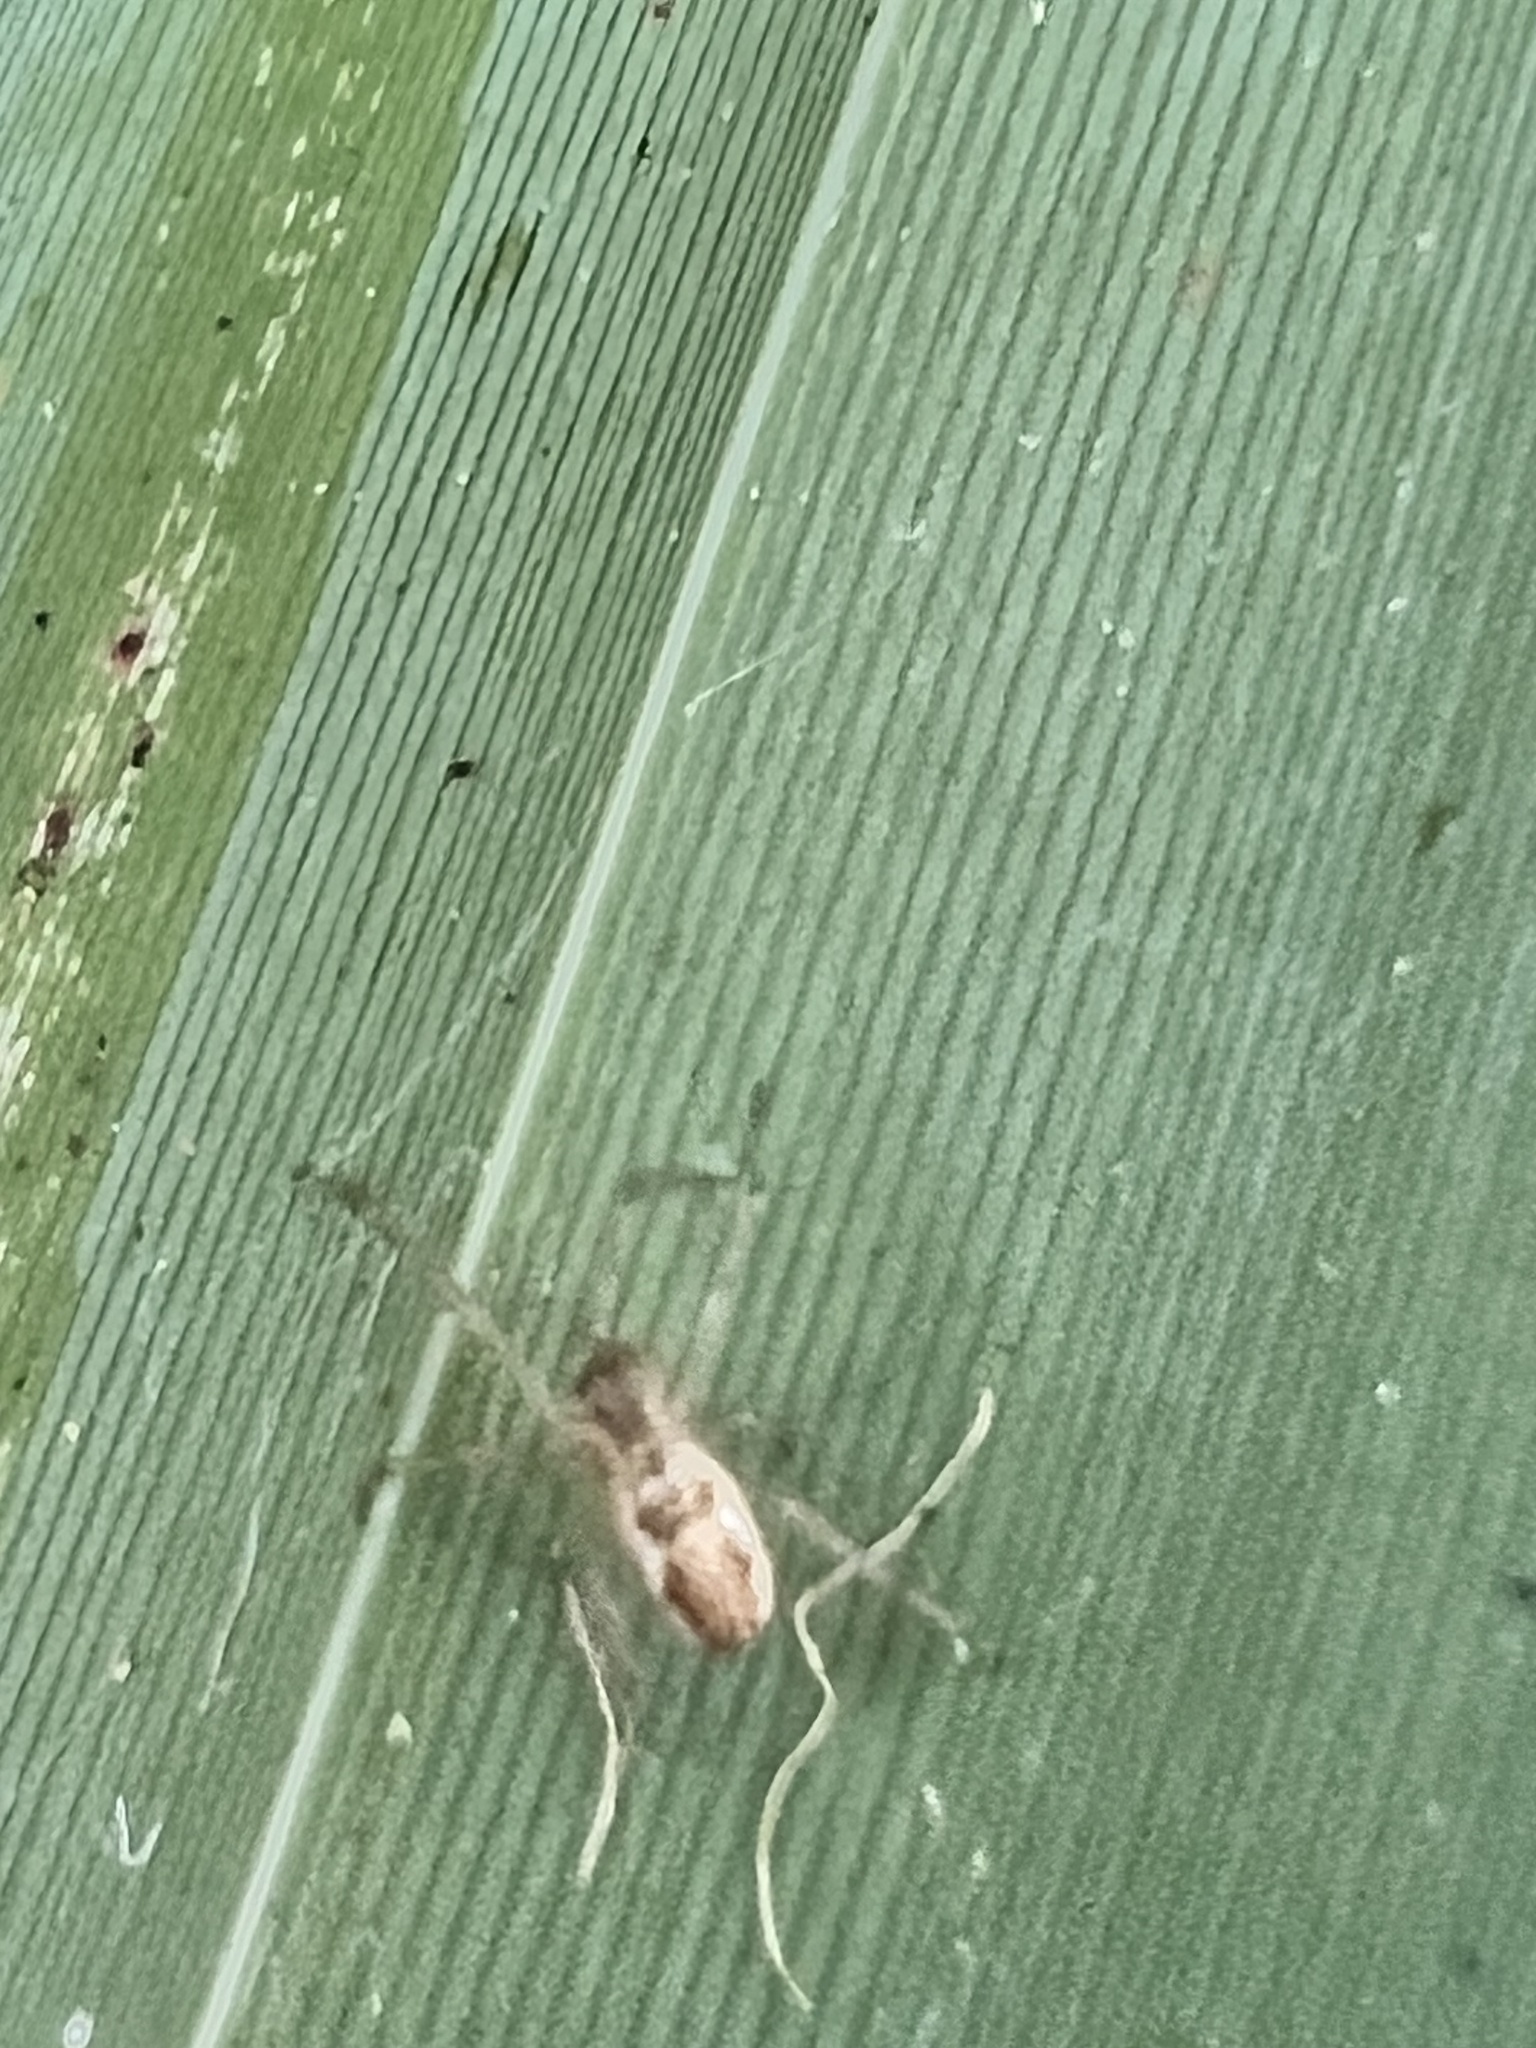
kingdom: Animalia
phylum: Arthropoda
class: Arachnida
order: Araneae
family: Tetragnathidae
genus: Nanometa
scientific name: Nanometa lagenifera
